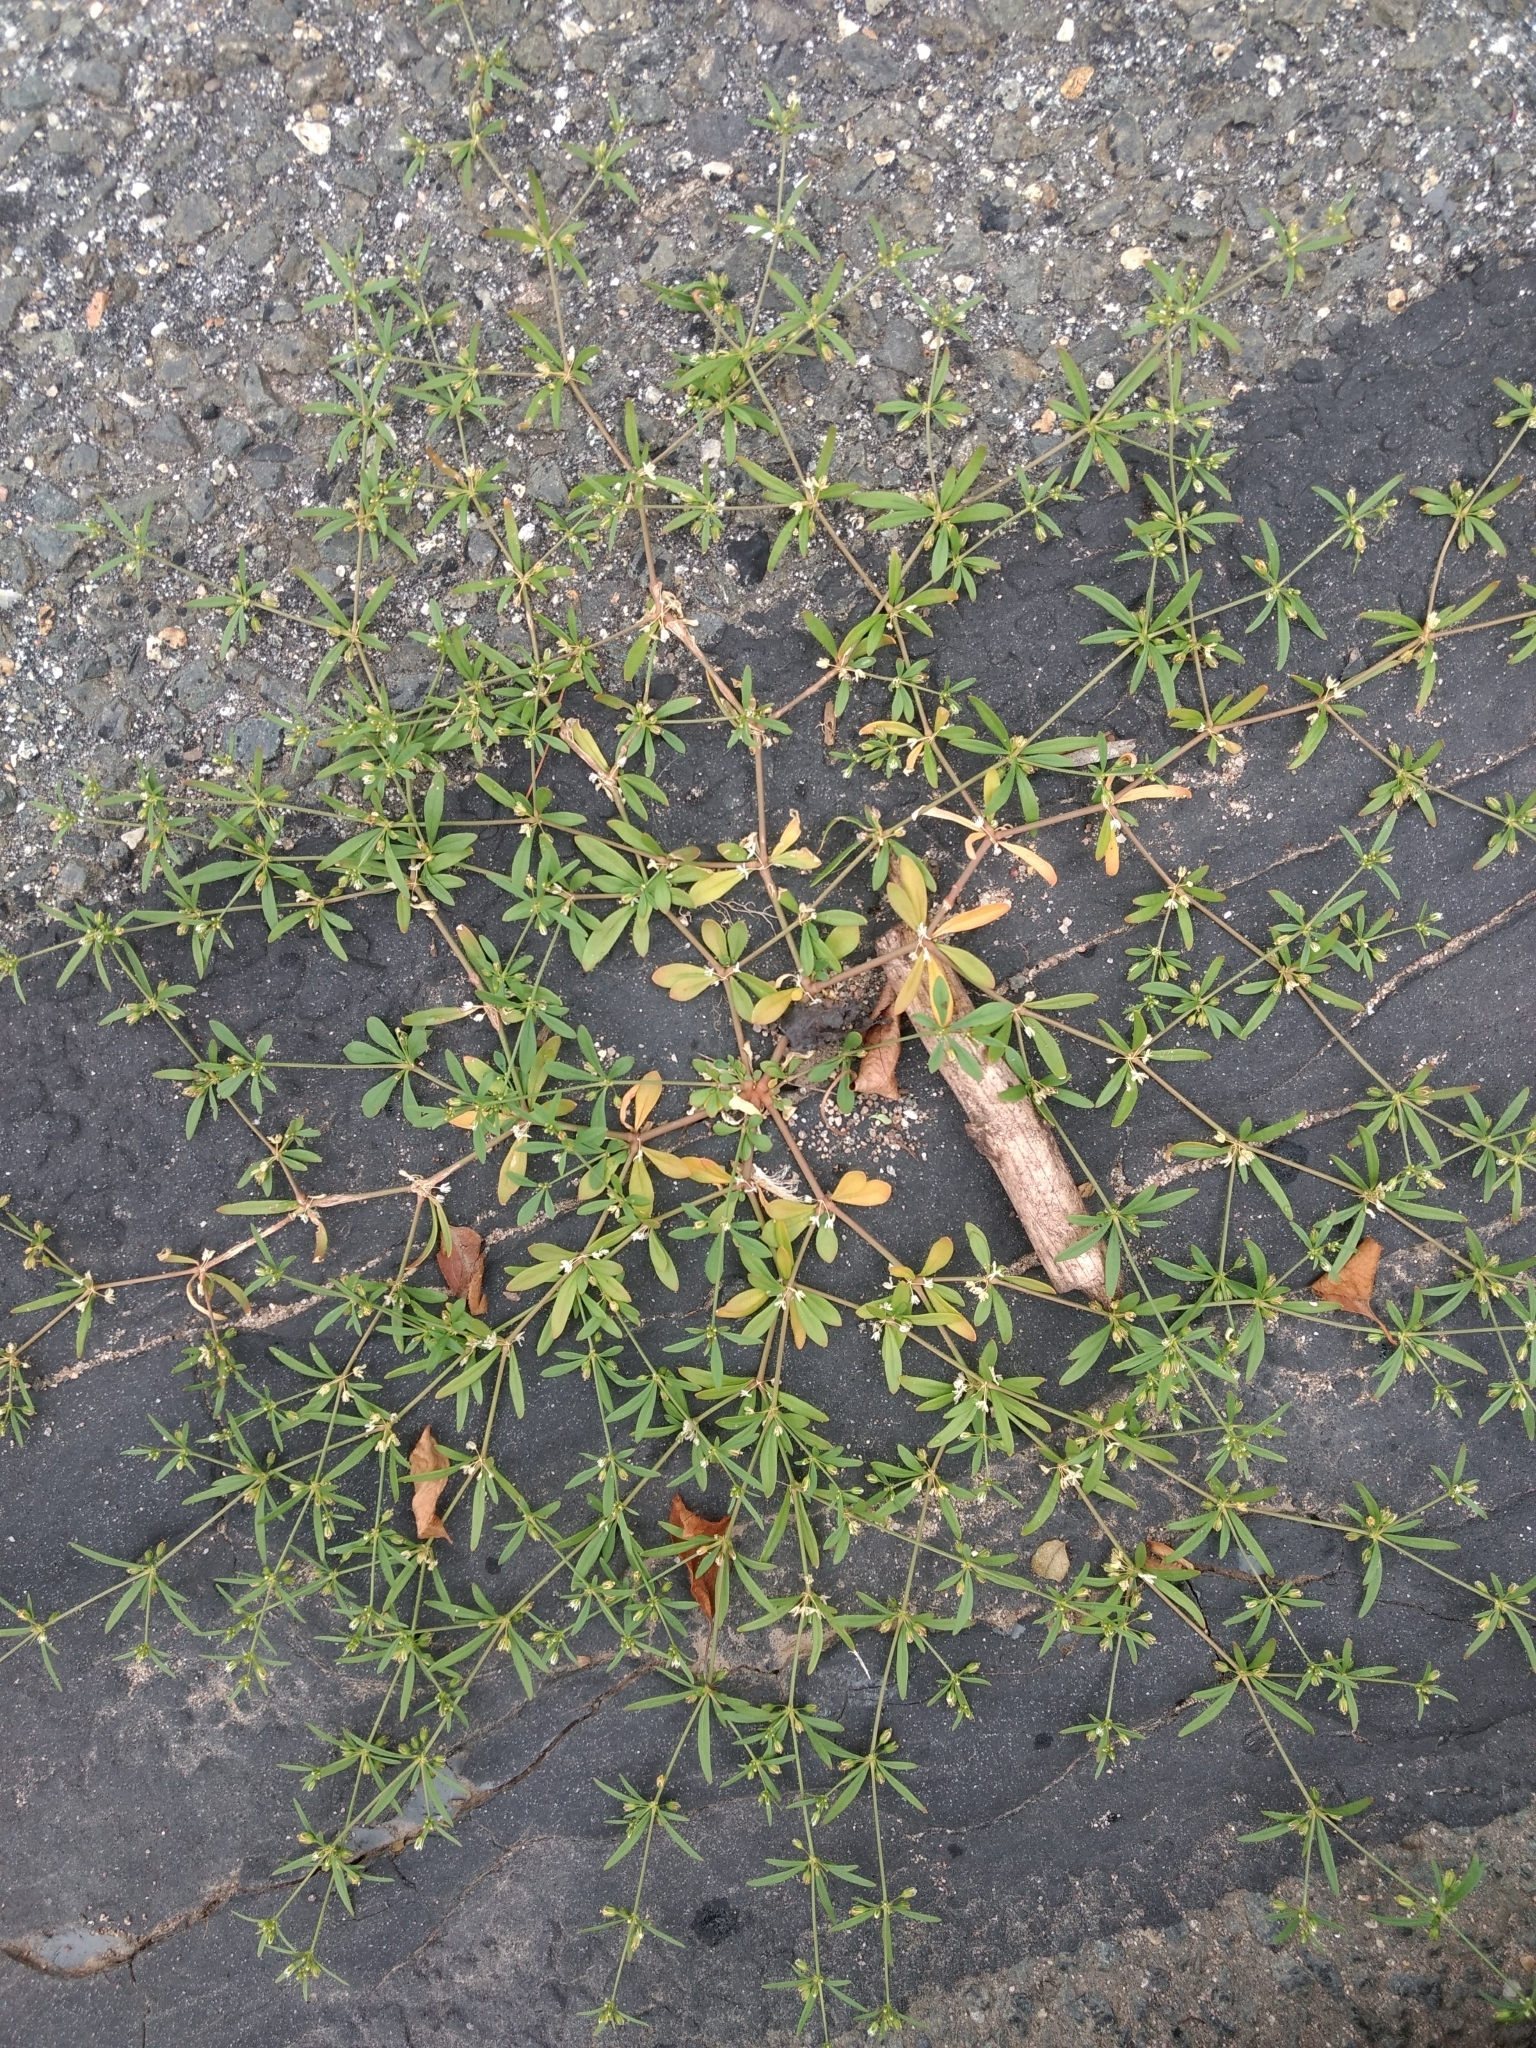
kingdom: Plantae
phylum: Tracheophyta
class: Magnoliopsida
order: Caryophyllales
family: Molluginaceae
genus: Mollugo
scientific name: Mollugo verticillata
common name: Green carpetweed
